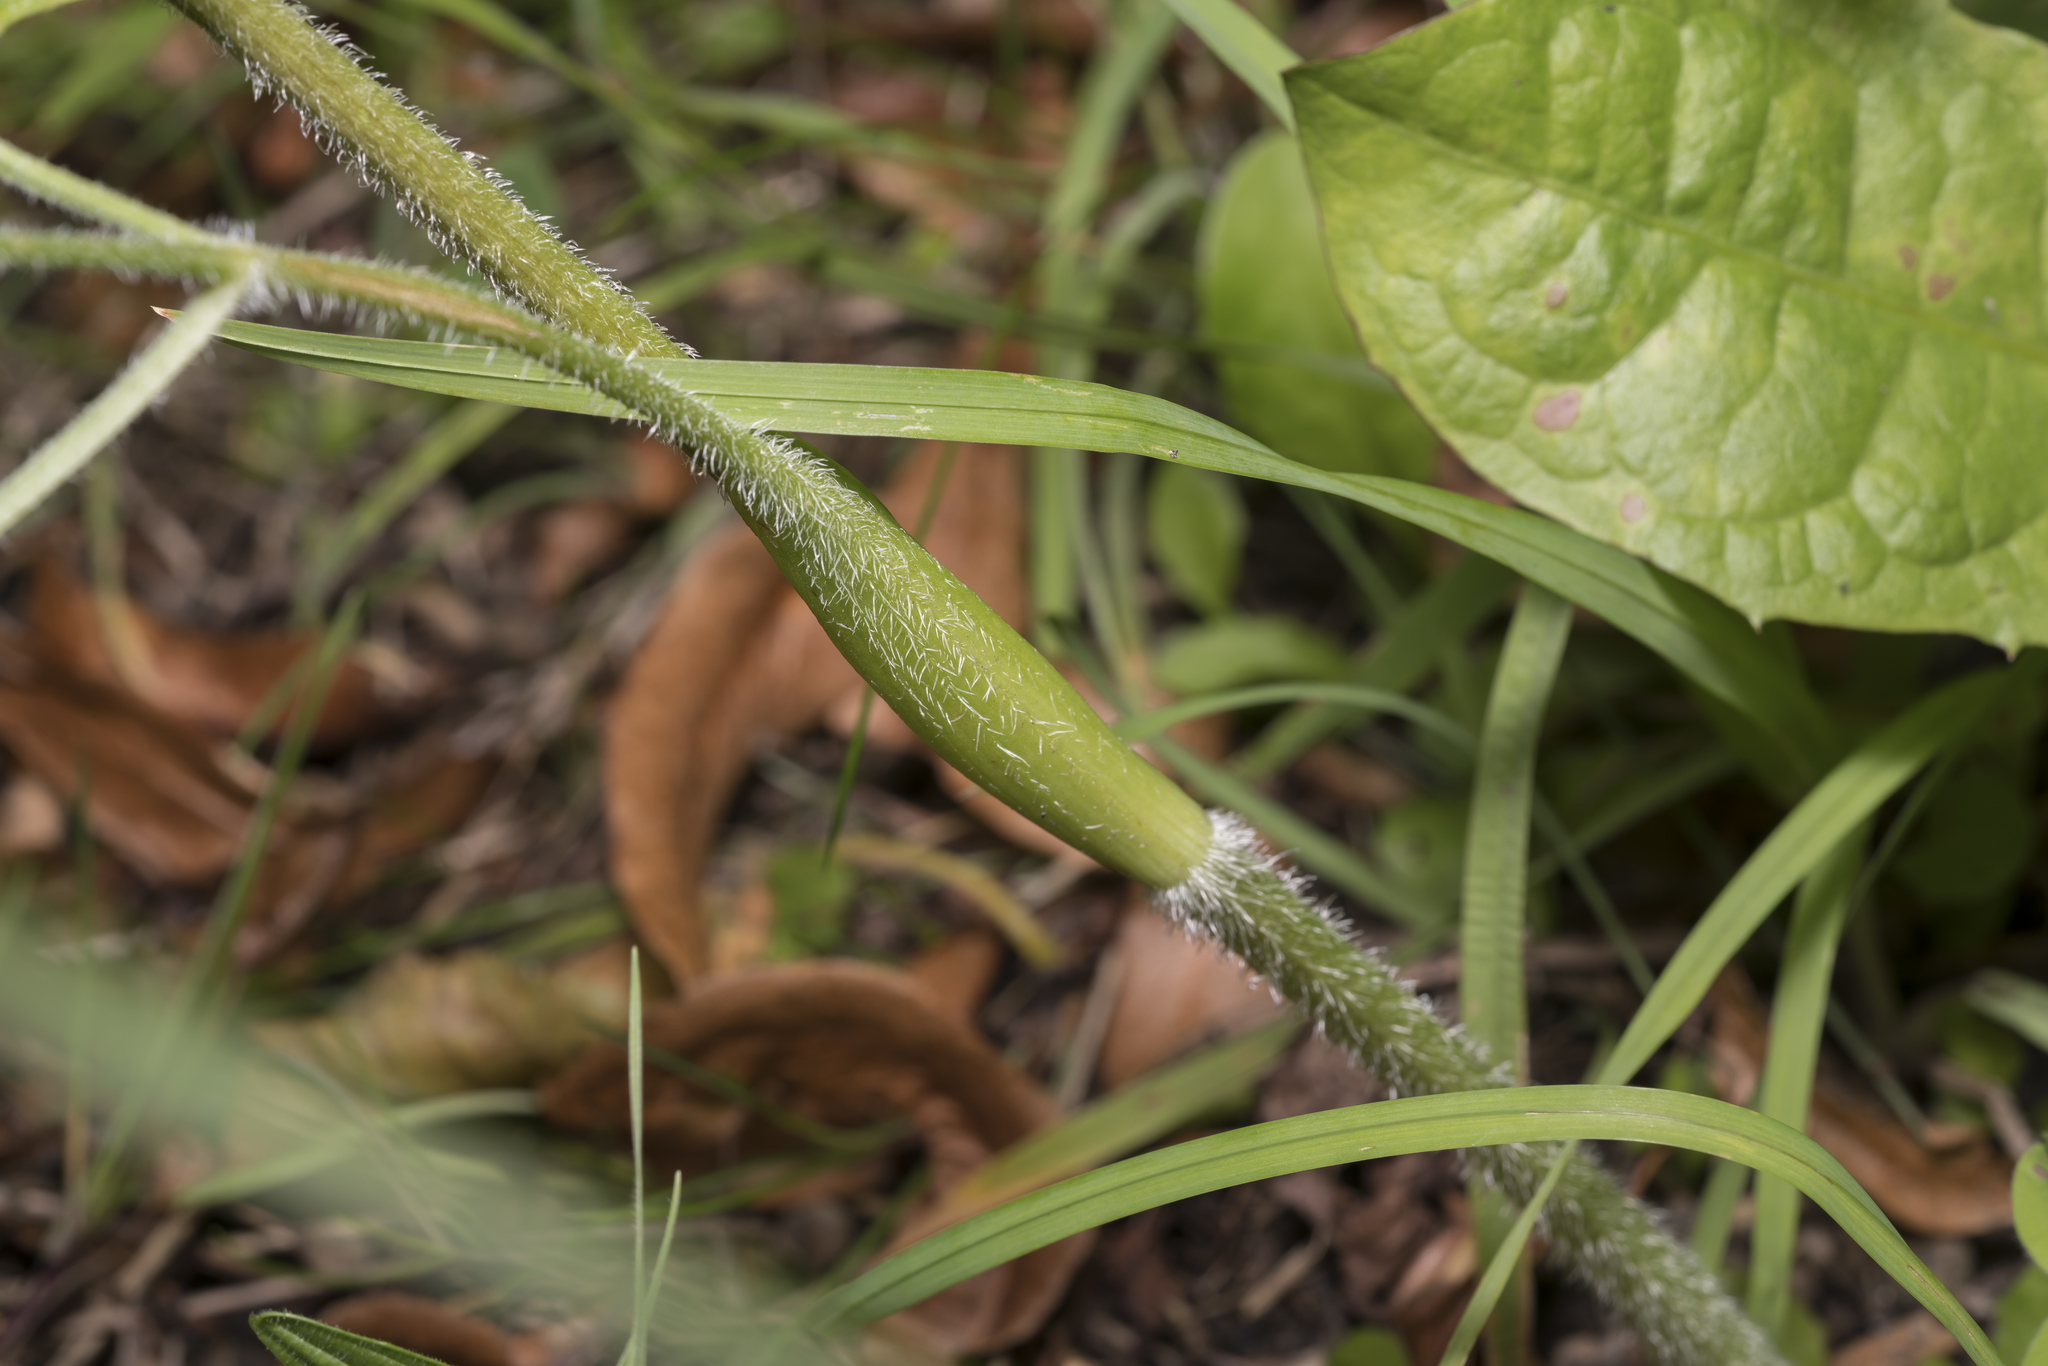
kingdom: Plantae
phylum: Tracheophyta
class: Magnoliopsida
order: Apiales
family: Apiaceae
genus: Heracleum
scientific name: Heracleum sphondylium
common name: Hogweed
